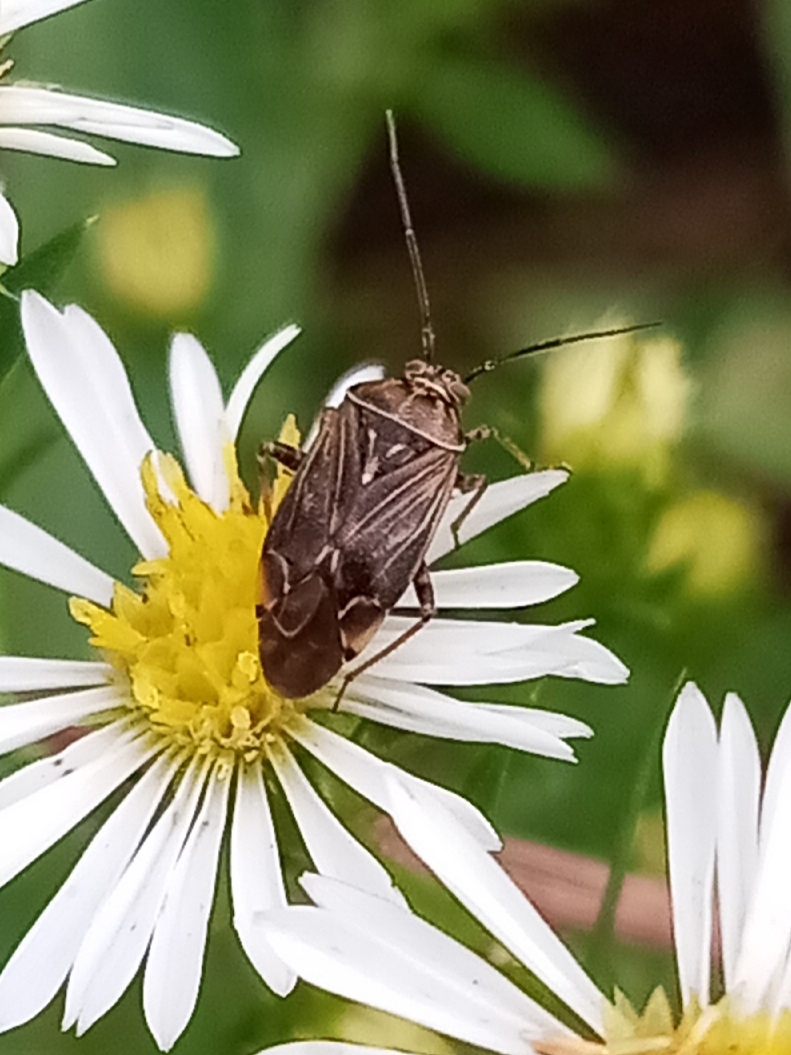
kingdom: Animalia
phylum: Arthropoda
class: Insecta
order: Hemiptera
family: Miridae
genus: Lygus
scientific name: Lygus lineolaris
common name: North american tarnished plant bug
